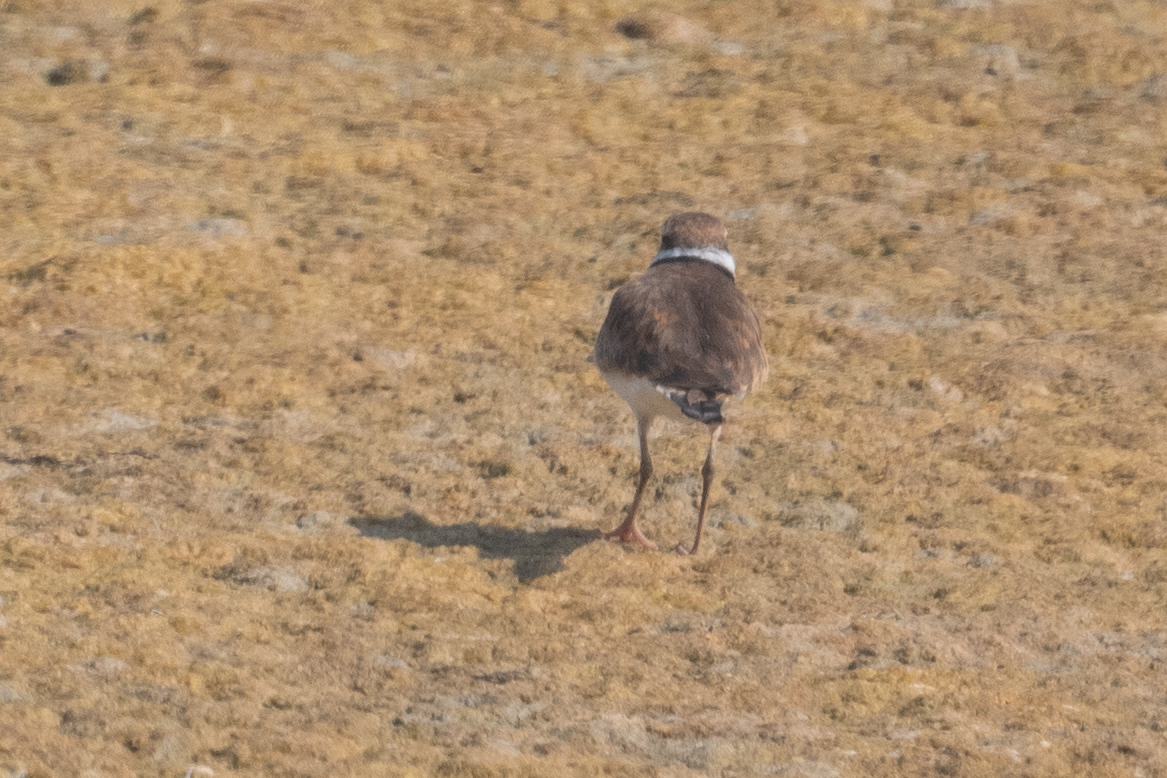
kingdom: Animalia
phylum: Chordata
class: Aves
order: Charadriiformes
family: Charadriidae
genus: Charadrius
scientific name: Charadrius vociferus
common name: Killdeer
